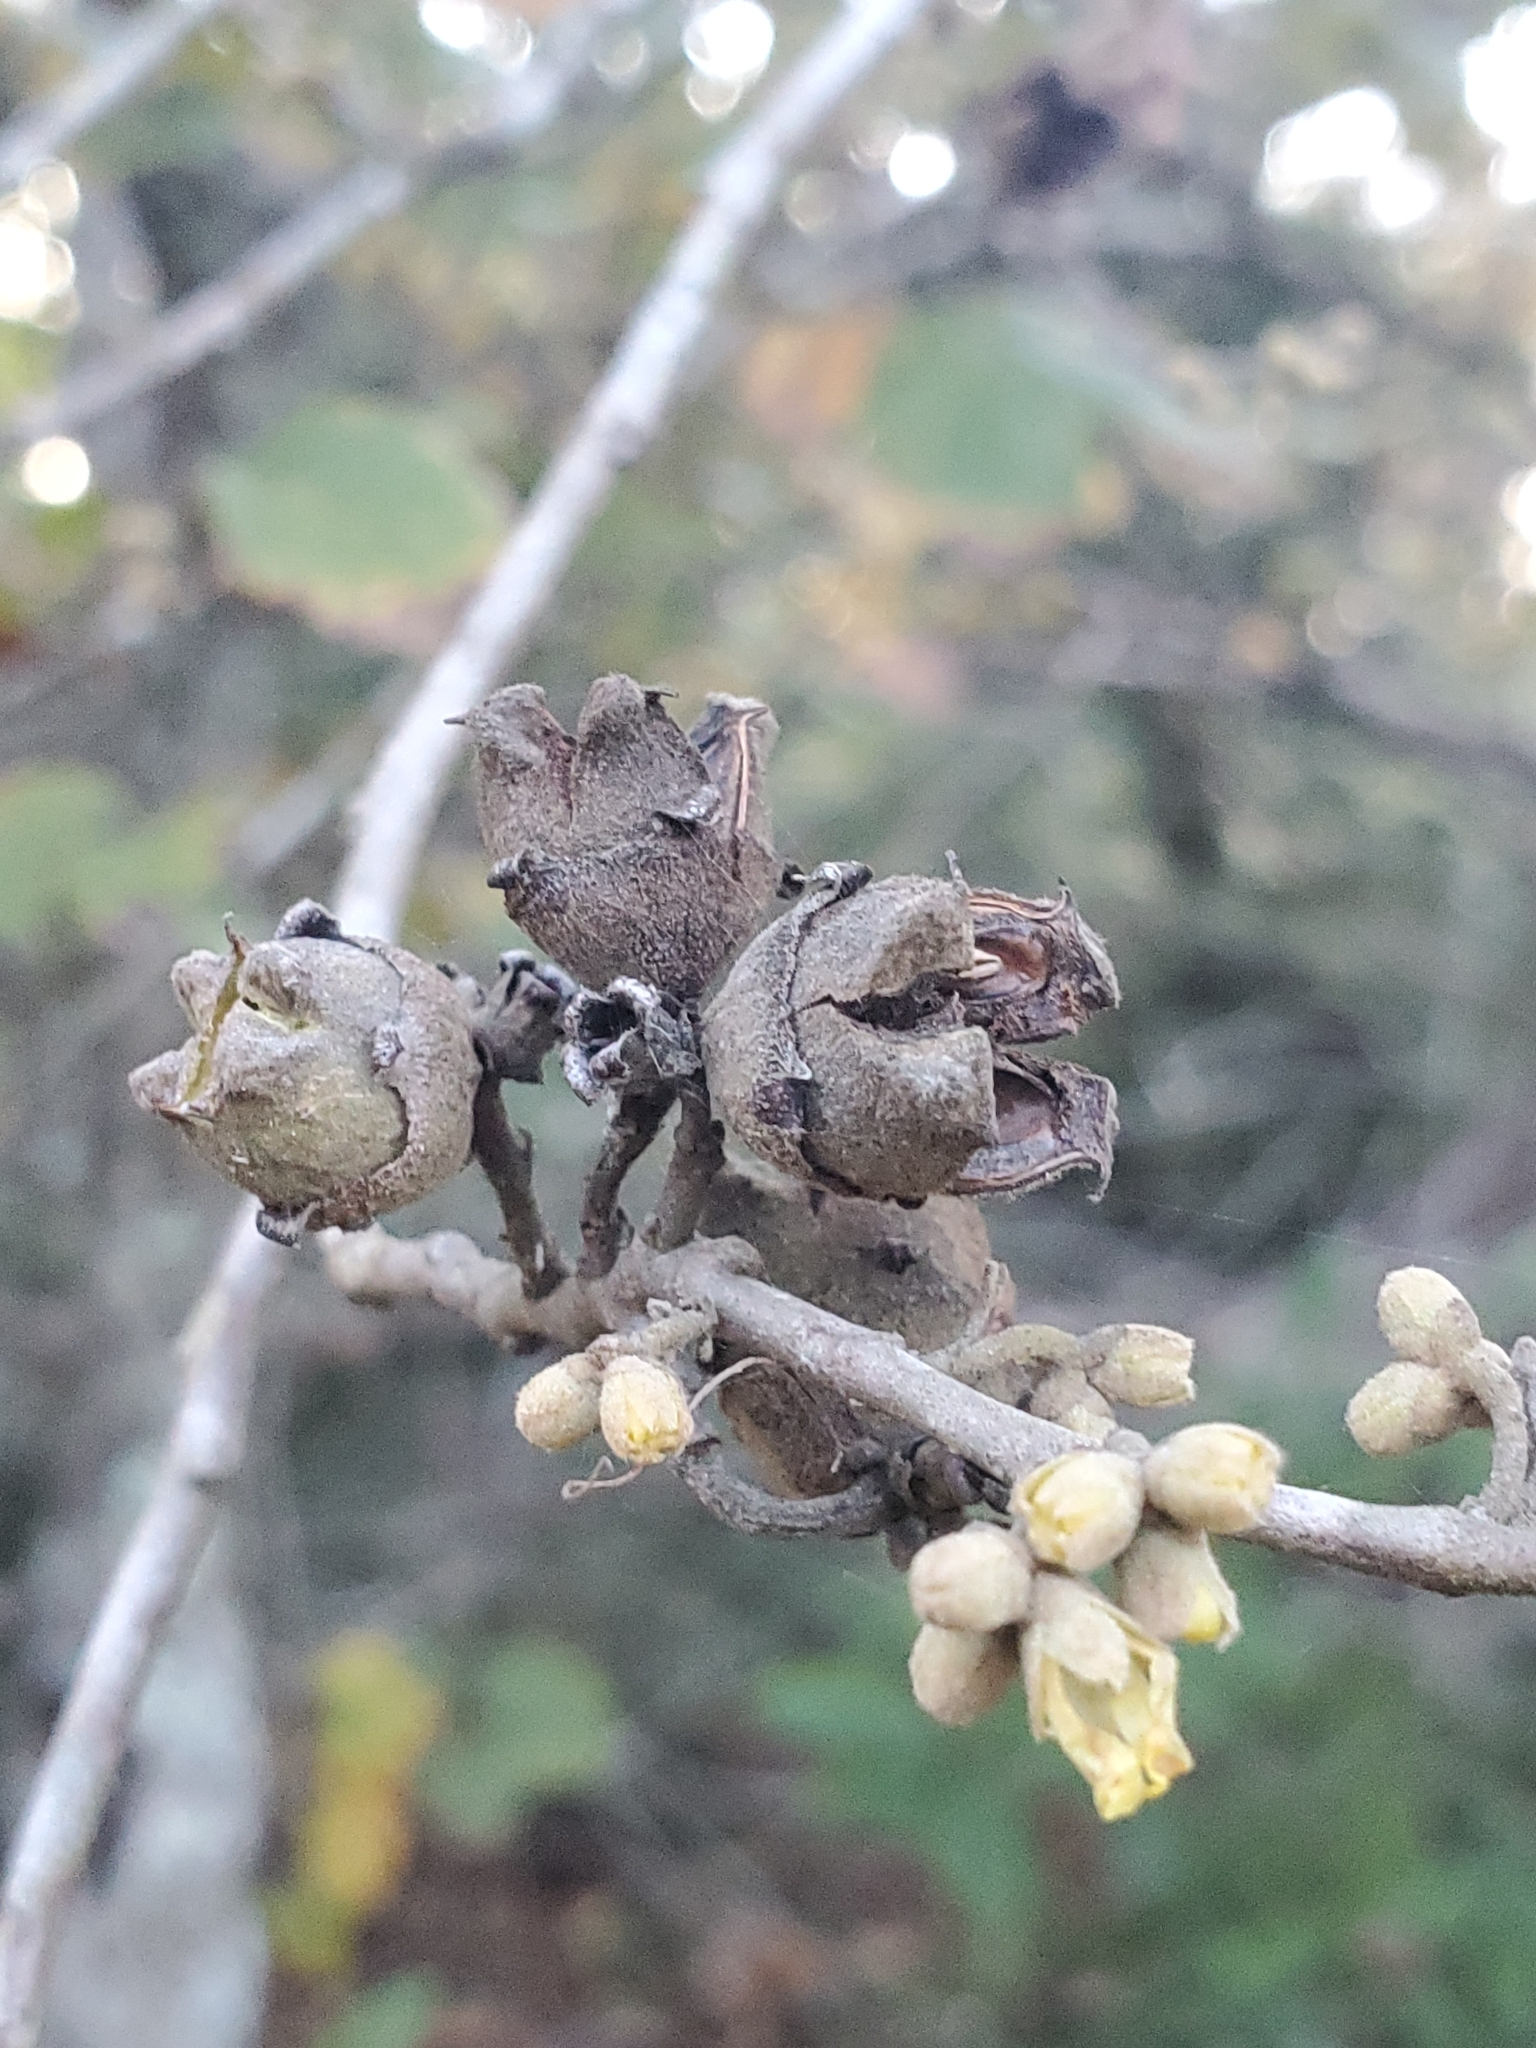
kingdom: Plantae
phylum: Tracheophyta
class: Magnoliopsida
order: Saxifragales
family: Hamamelidaceae
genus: Hamamelis
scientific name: Hamamelis virginiana
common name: Witch-hazel
